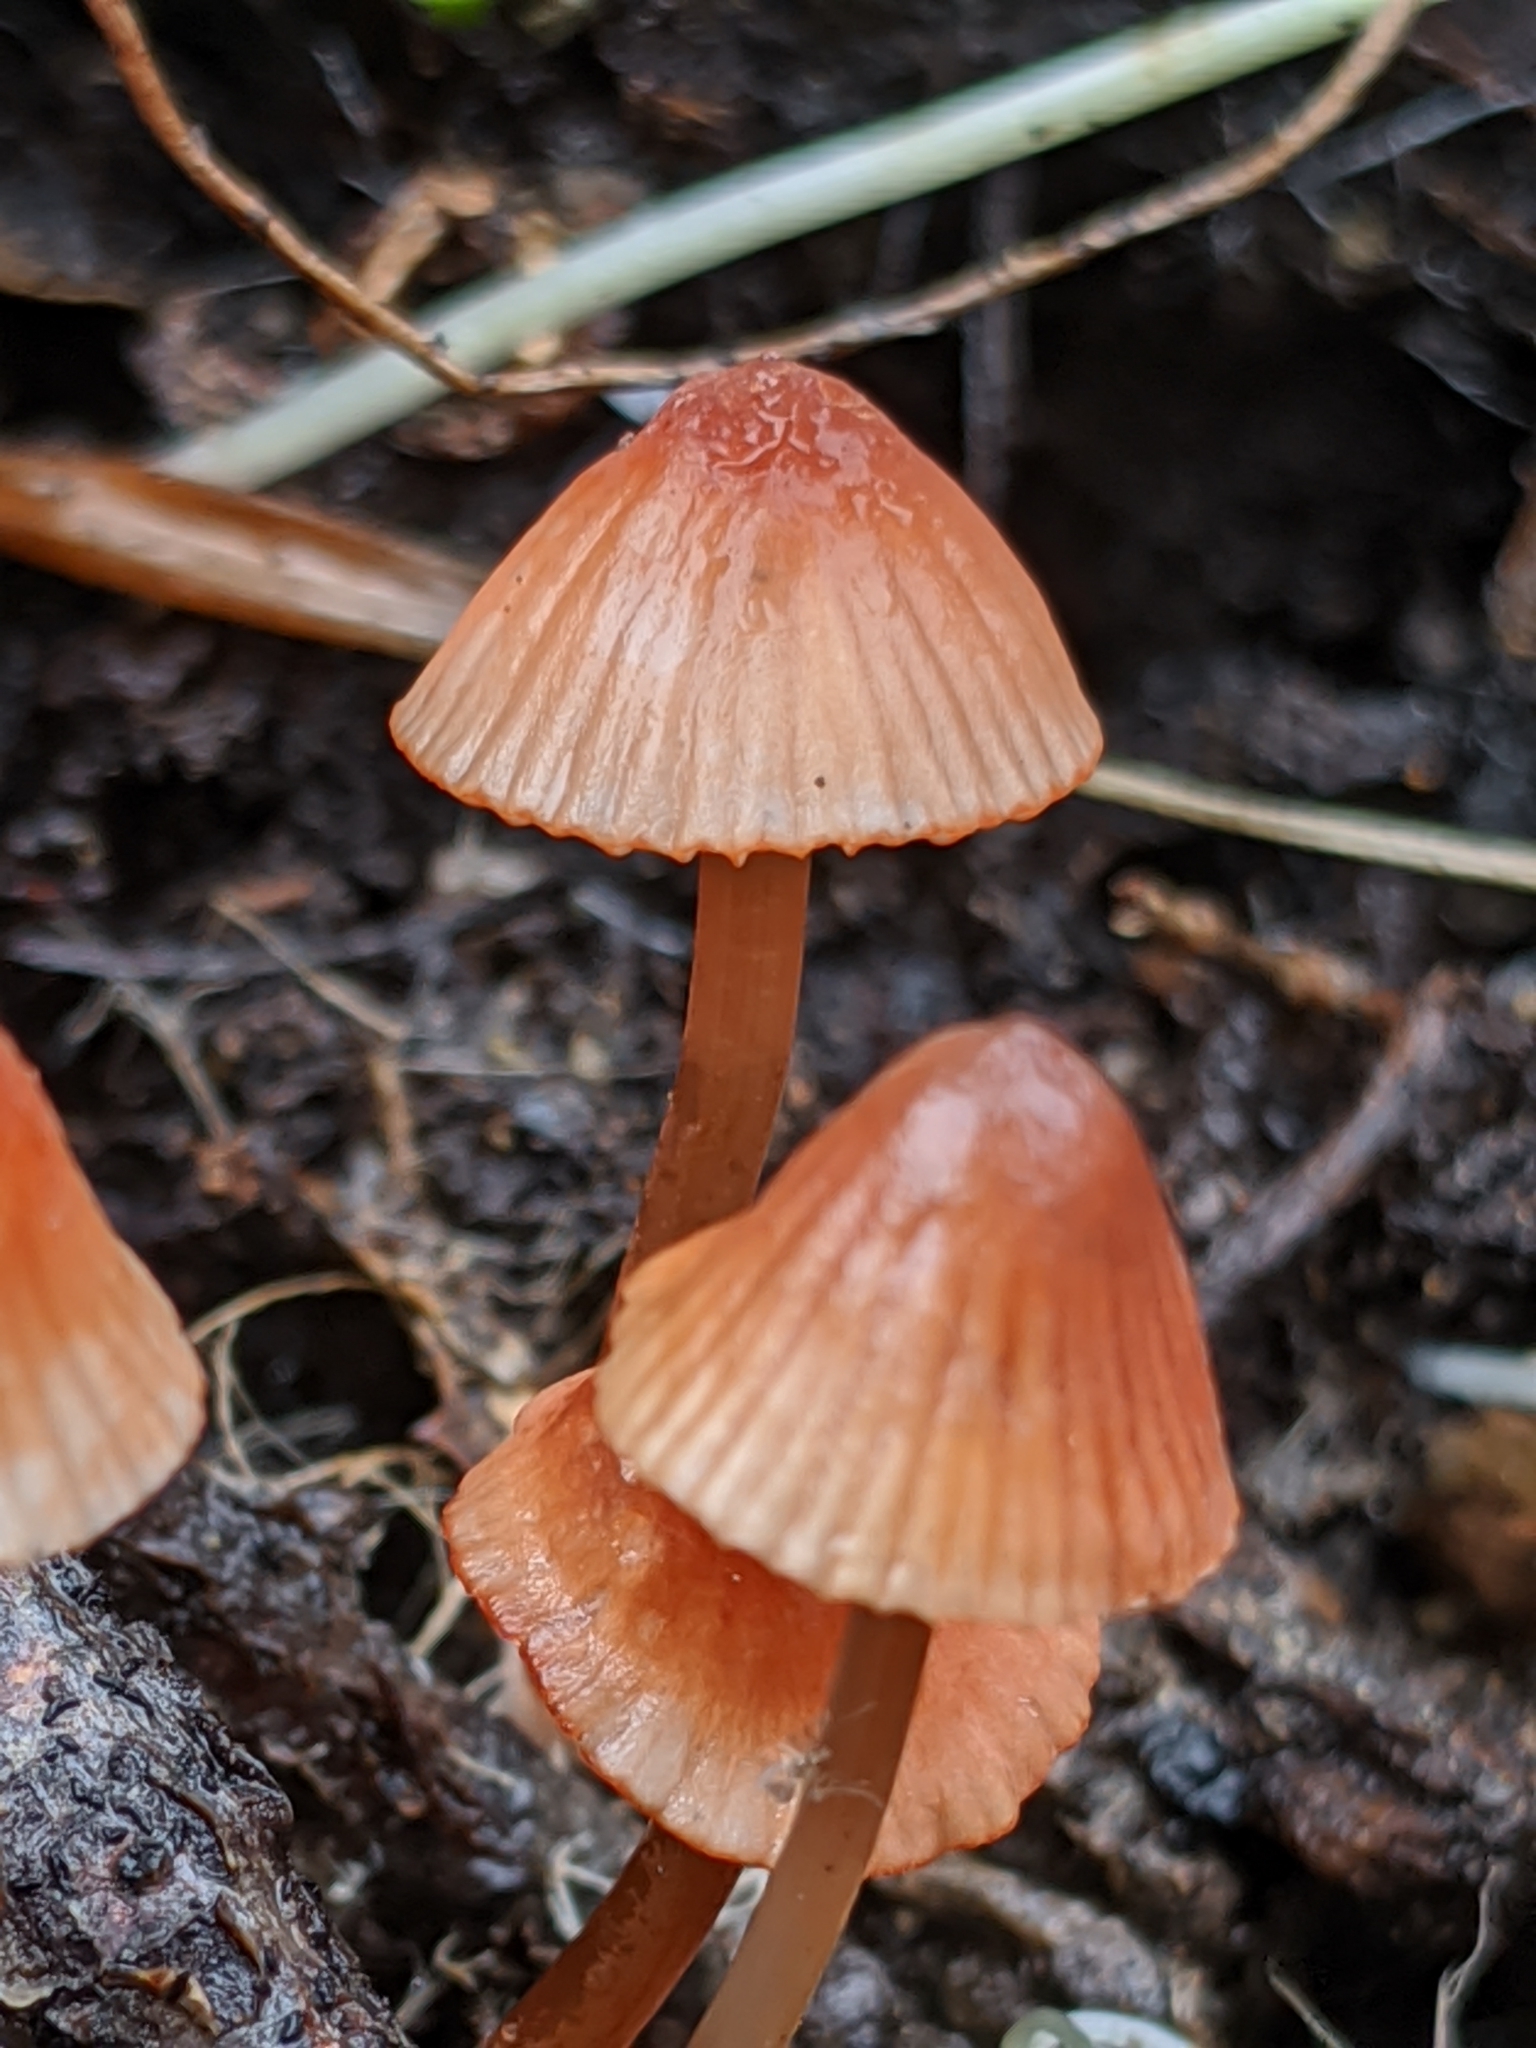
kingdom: Fungi
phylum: Basidiomycota
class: Agaricomycetes
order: Agaricales
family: Mycenaceae
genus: Mycena
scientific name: Mycena
